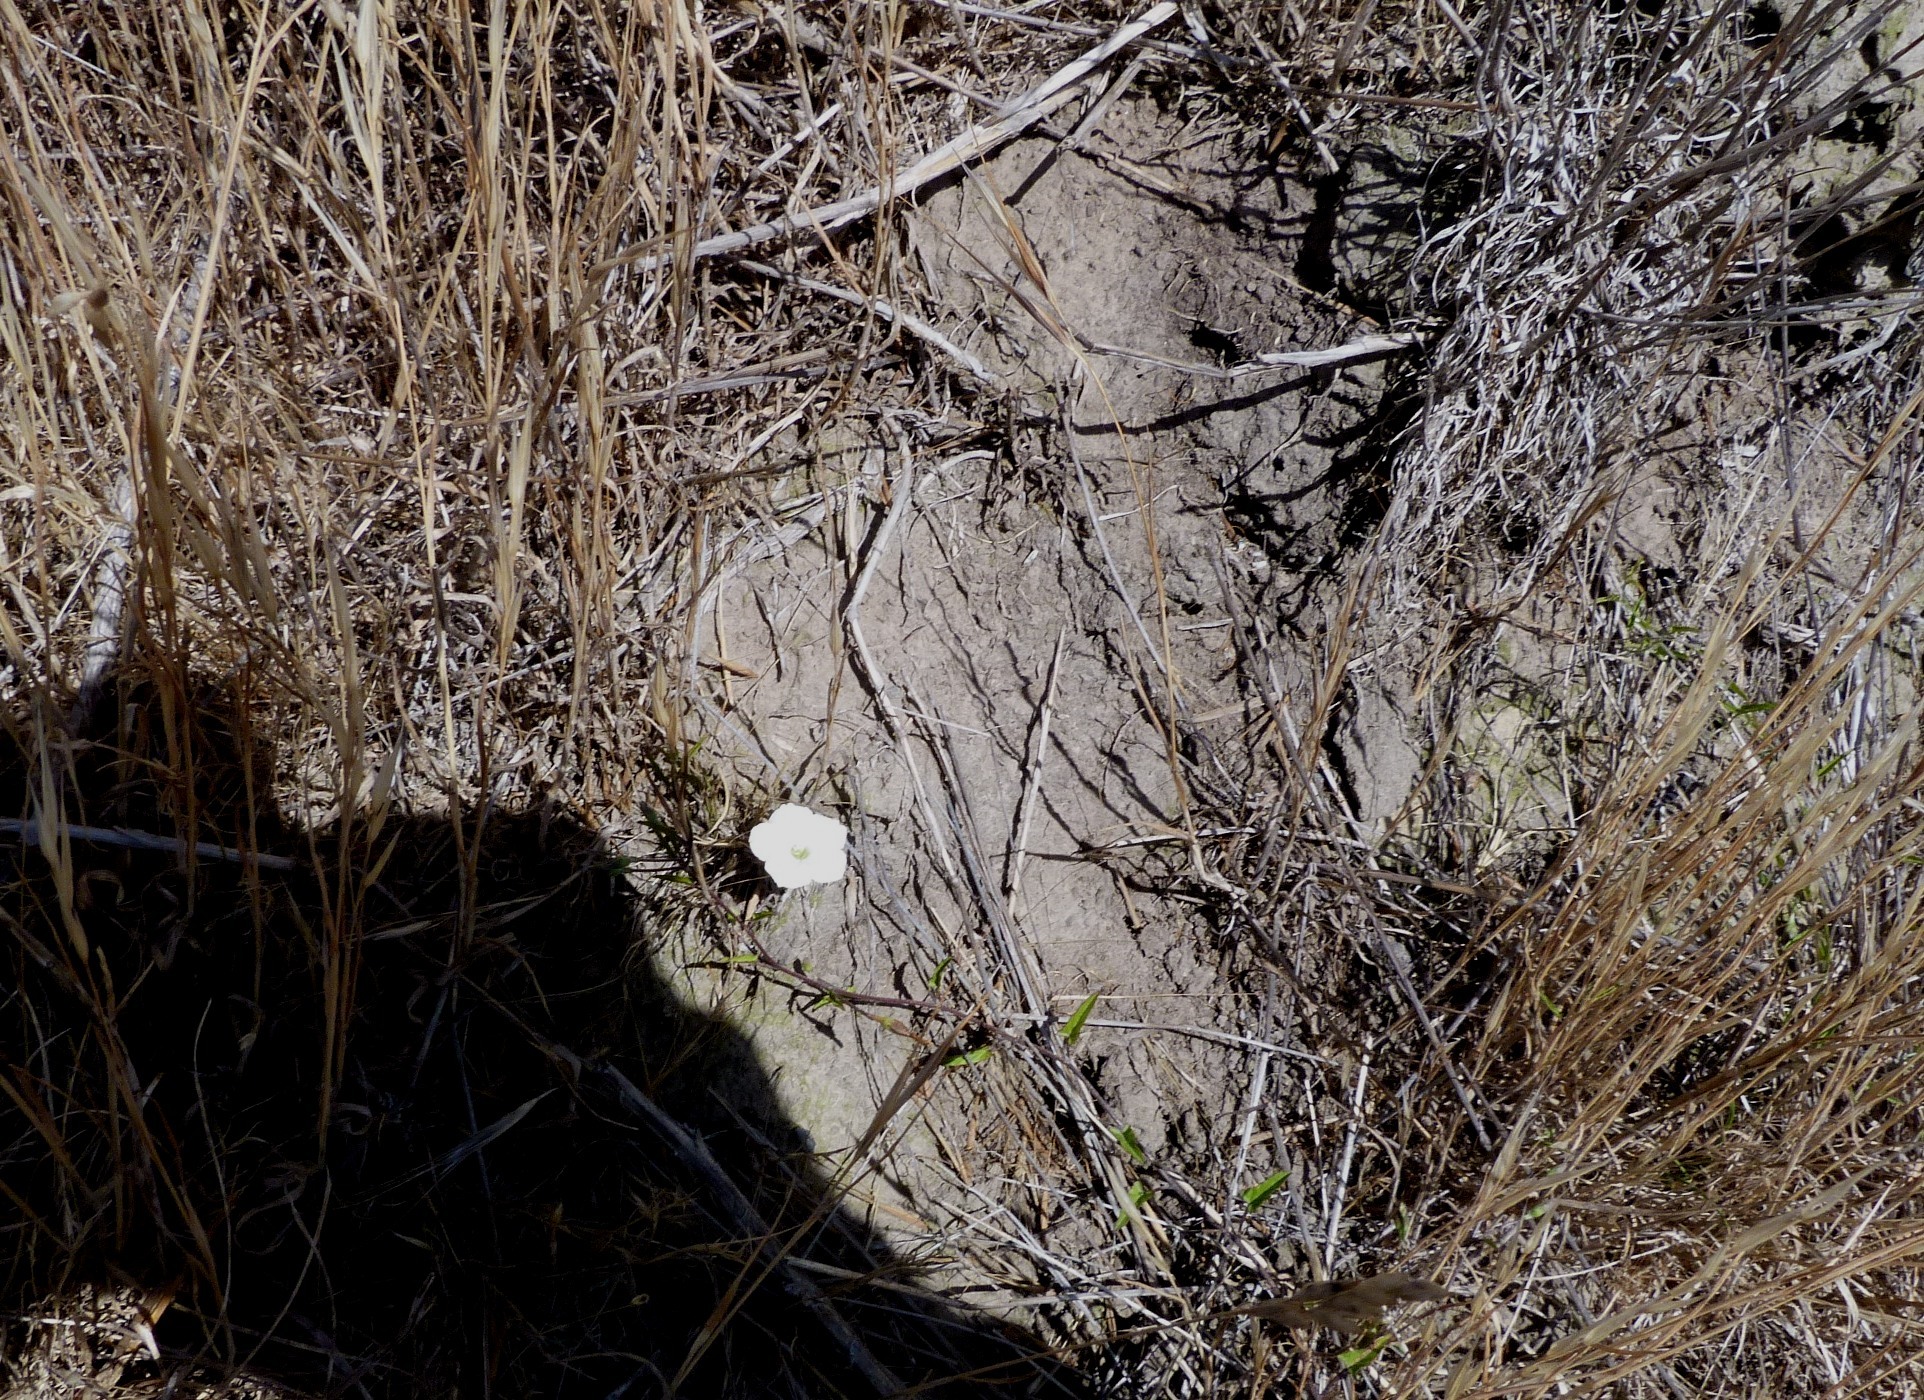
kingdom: Plantae
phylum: Tracheophyta
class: Magnoliopsida
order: Solanales
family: Convolvulaceae
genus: Convolvulus
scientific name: Convolvulus waitaha
